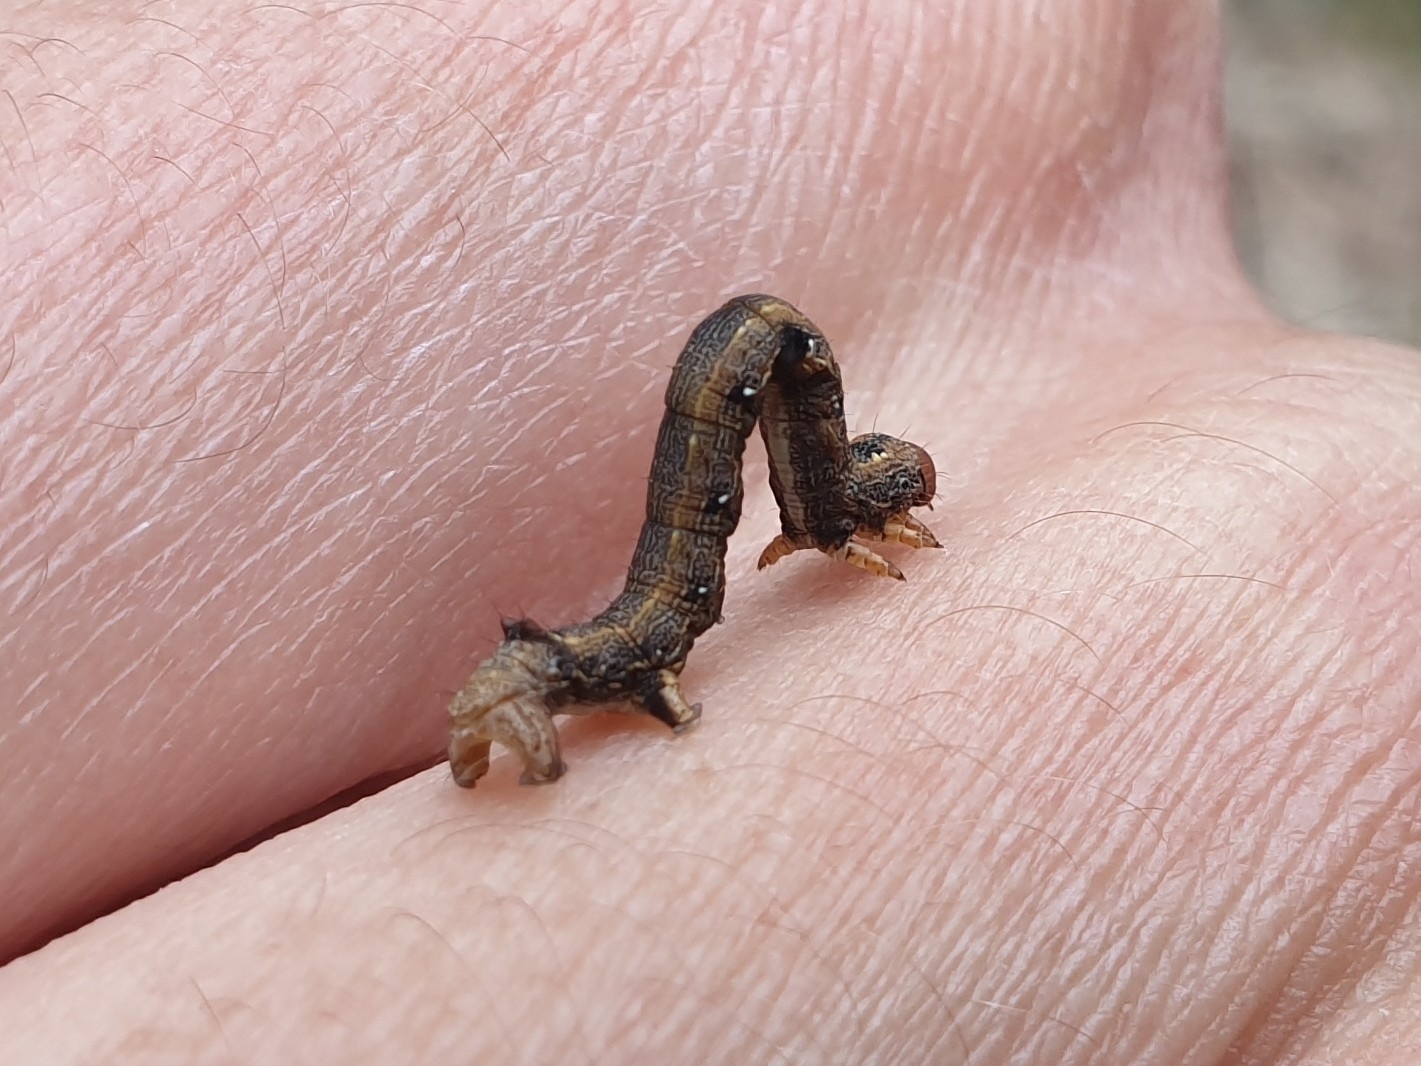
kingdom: Animalia
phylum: Arthropoda
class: Insecta
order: Lepidoptera
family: Geometridae
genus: Colotois
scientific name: Colotois pennaria
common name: Feathered thorn
